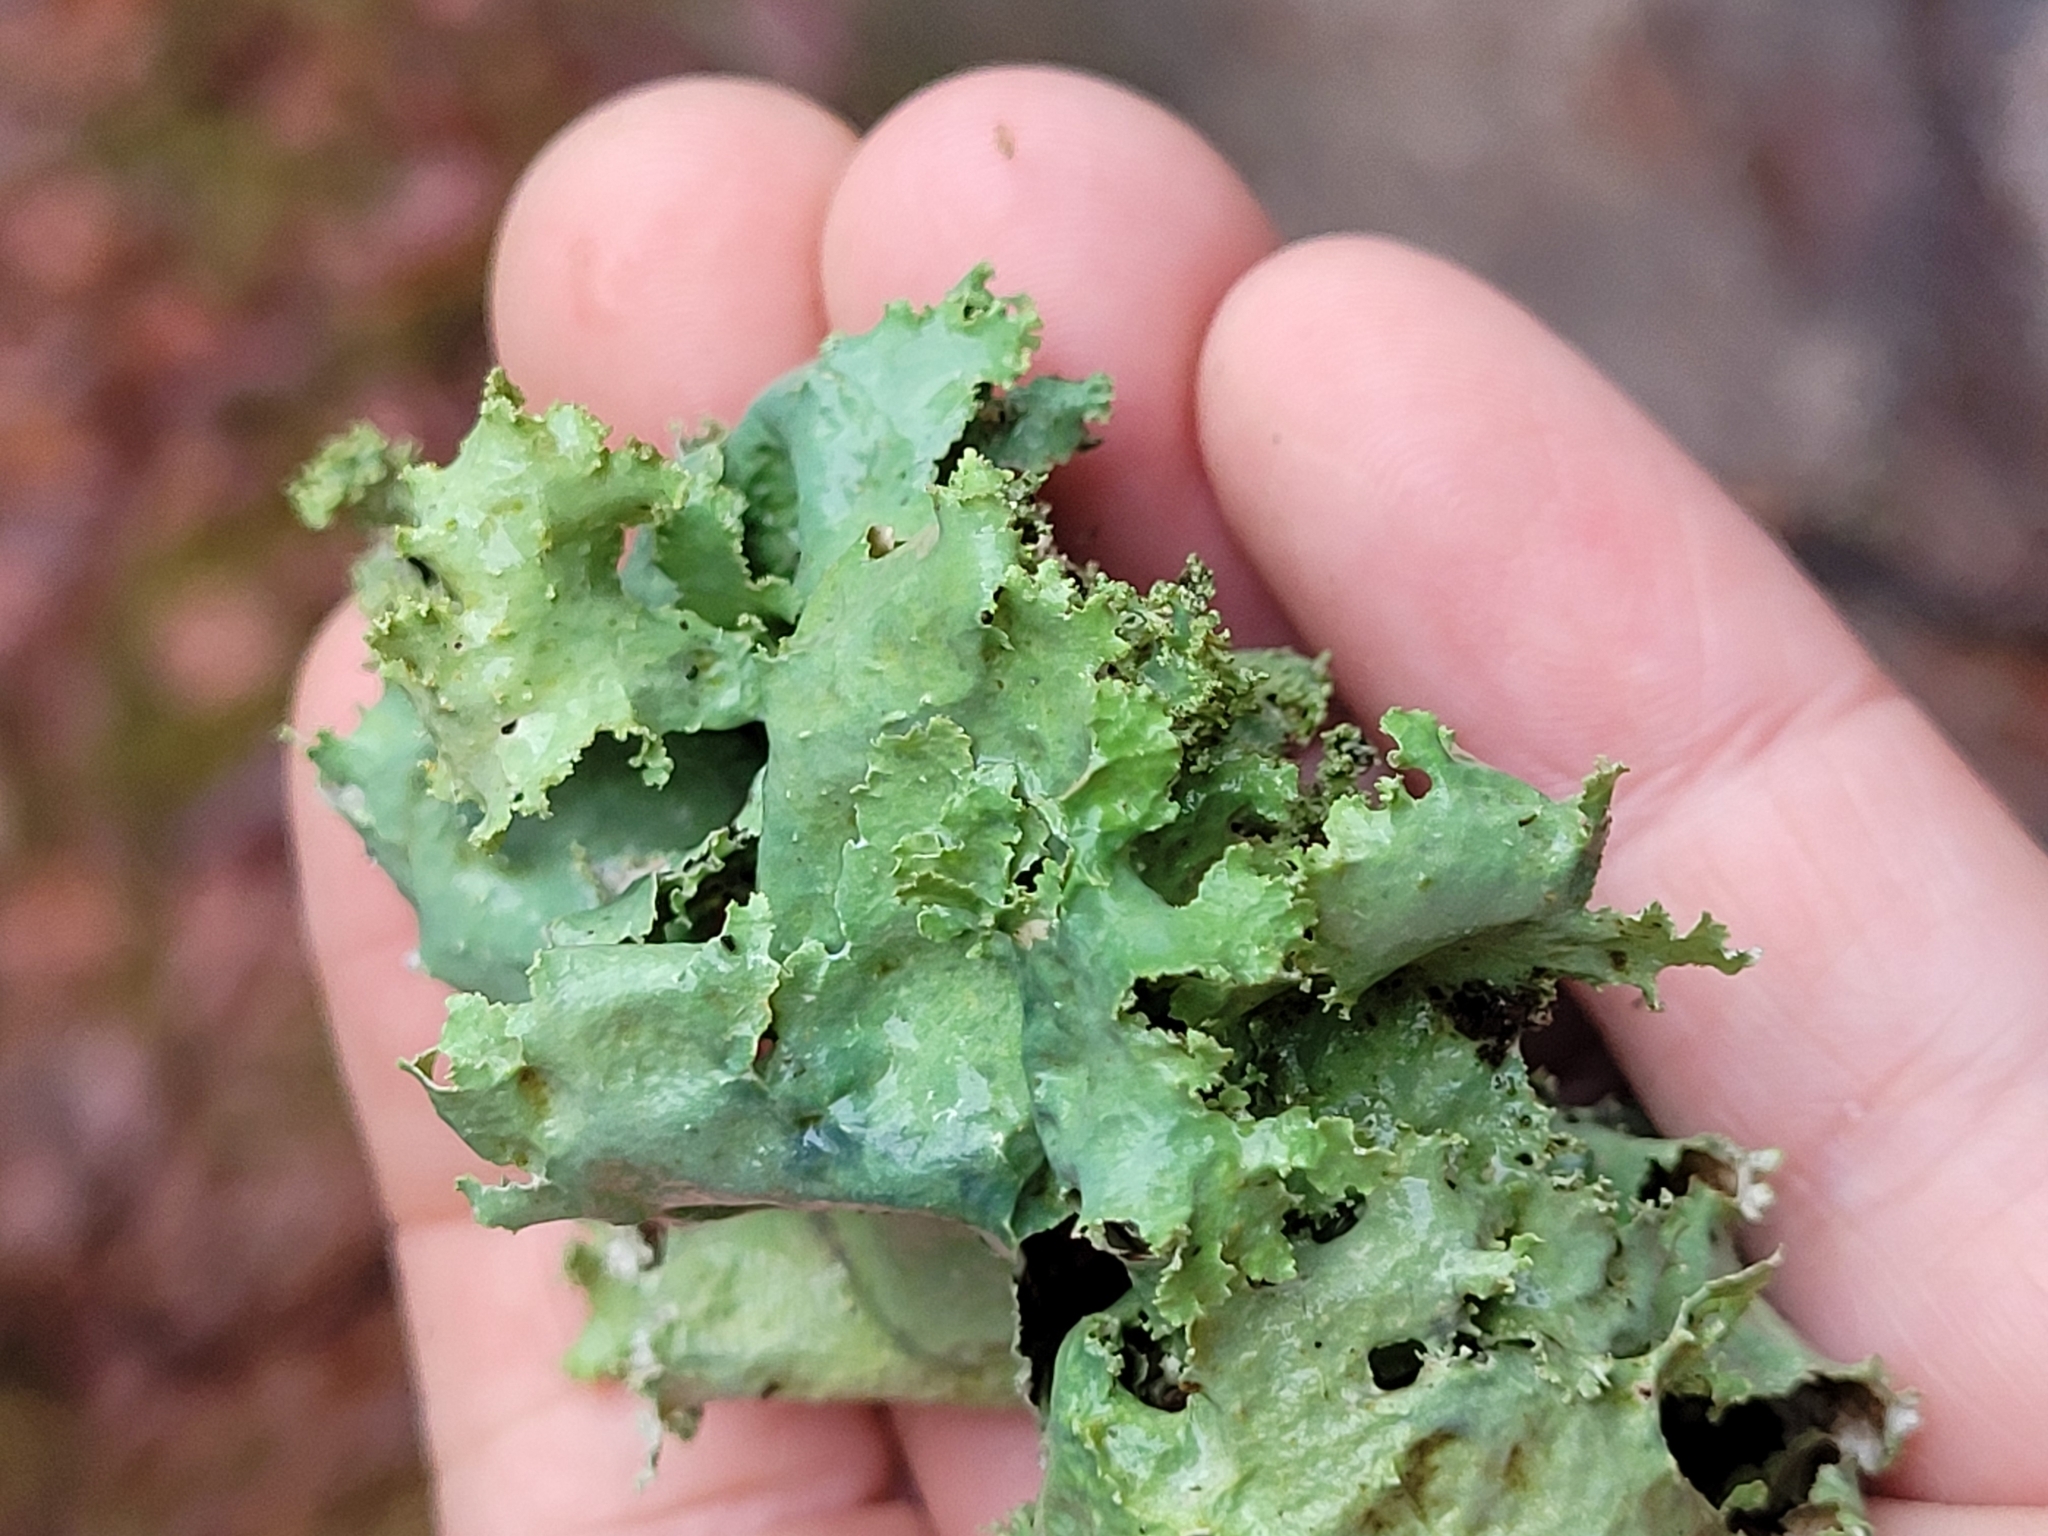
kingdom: Fungi
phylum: Ascomycota
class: Lecanoromycetes
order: Lecanorales
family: Parmeliaceae
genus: Platismatia
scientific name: Platismatia glauca
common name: Varied rag lichen
